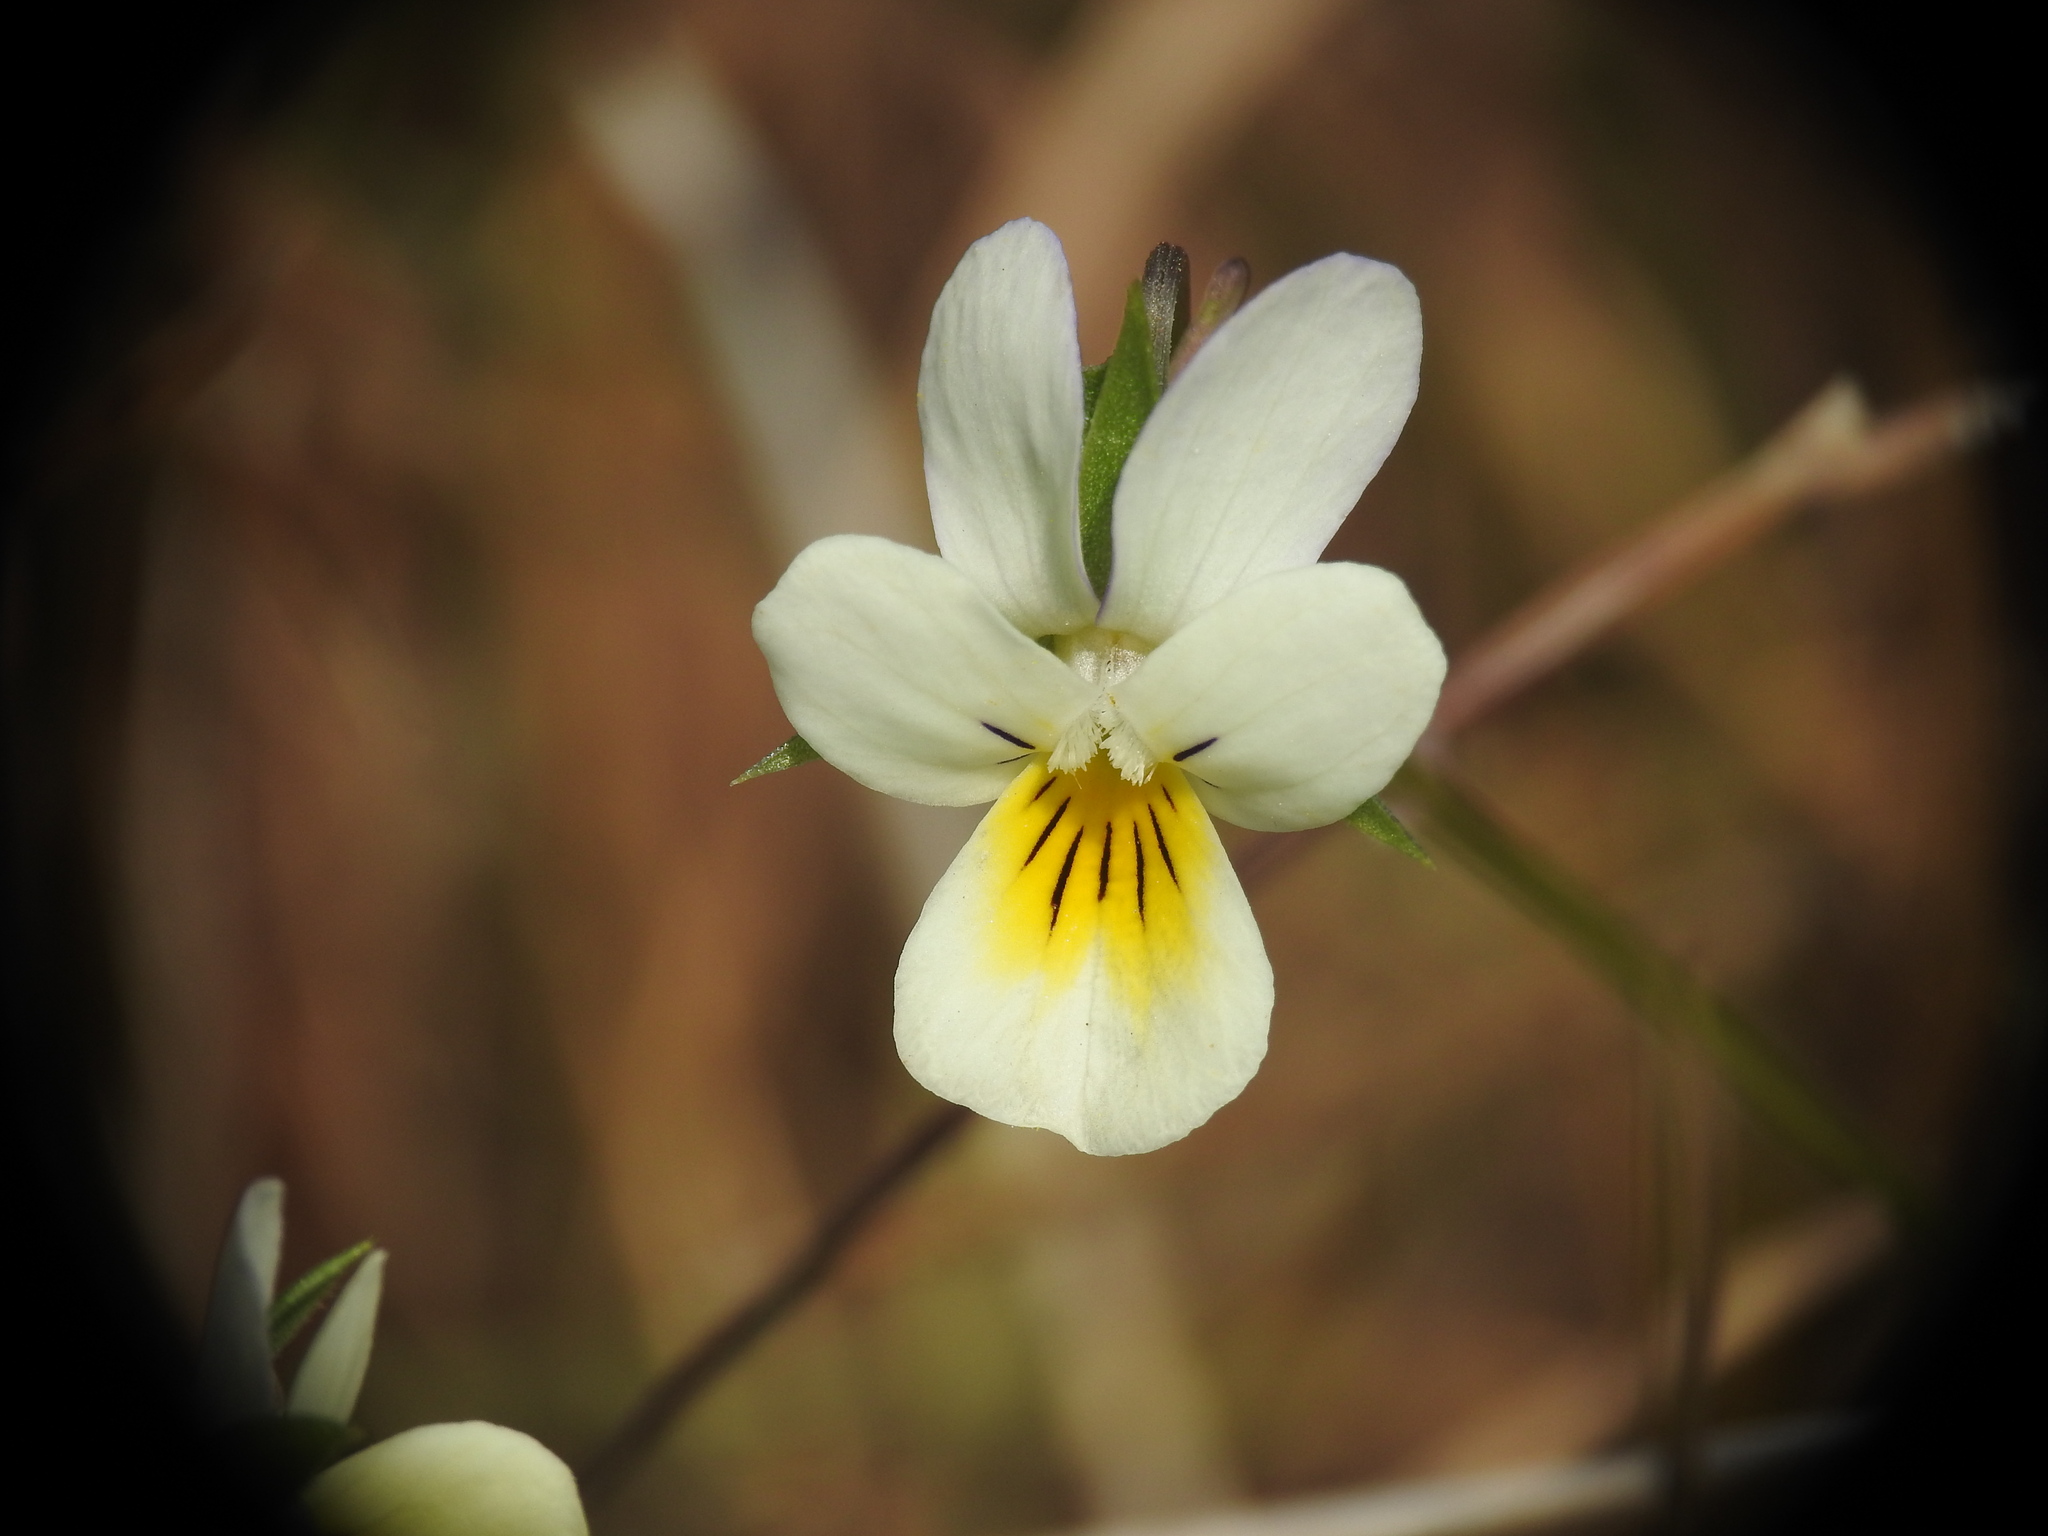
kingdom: Plantae
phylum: Tracheophyta
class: Magnoliopsida
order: Malpighiales
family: Violaceae
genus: Viola
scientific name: Viola arvensis
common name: Field pansy
